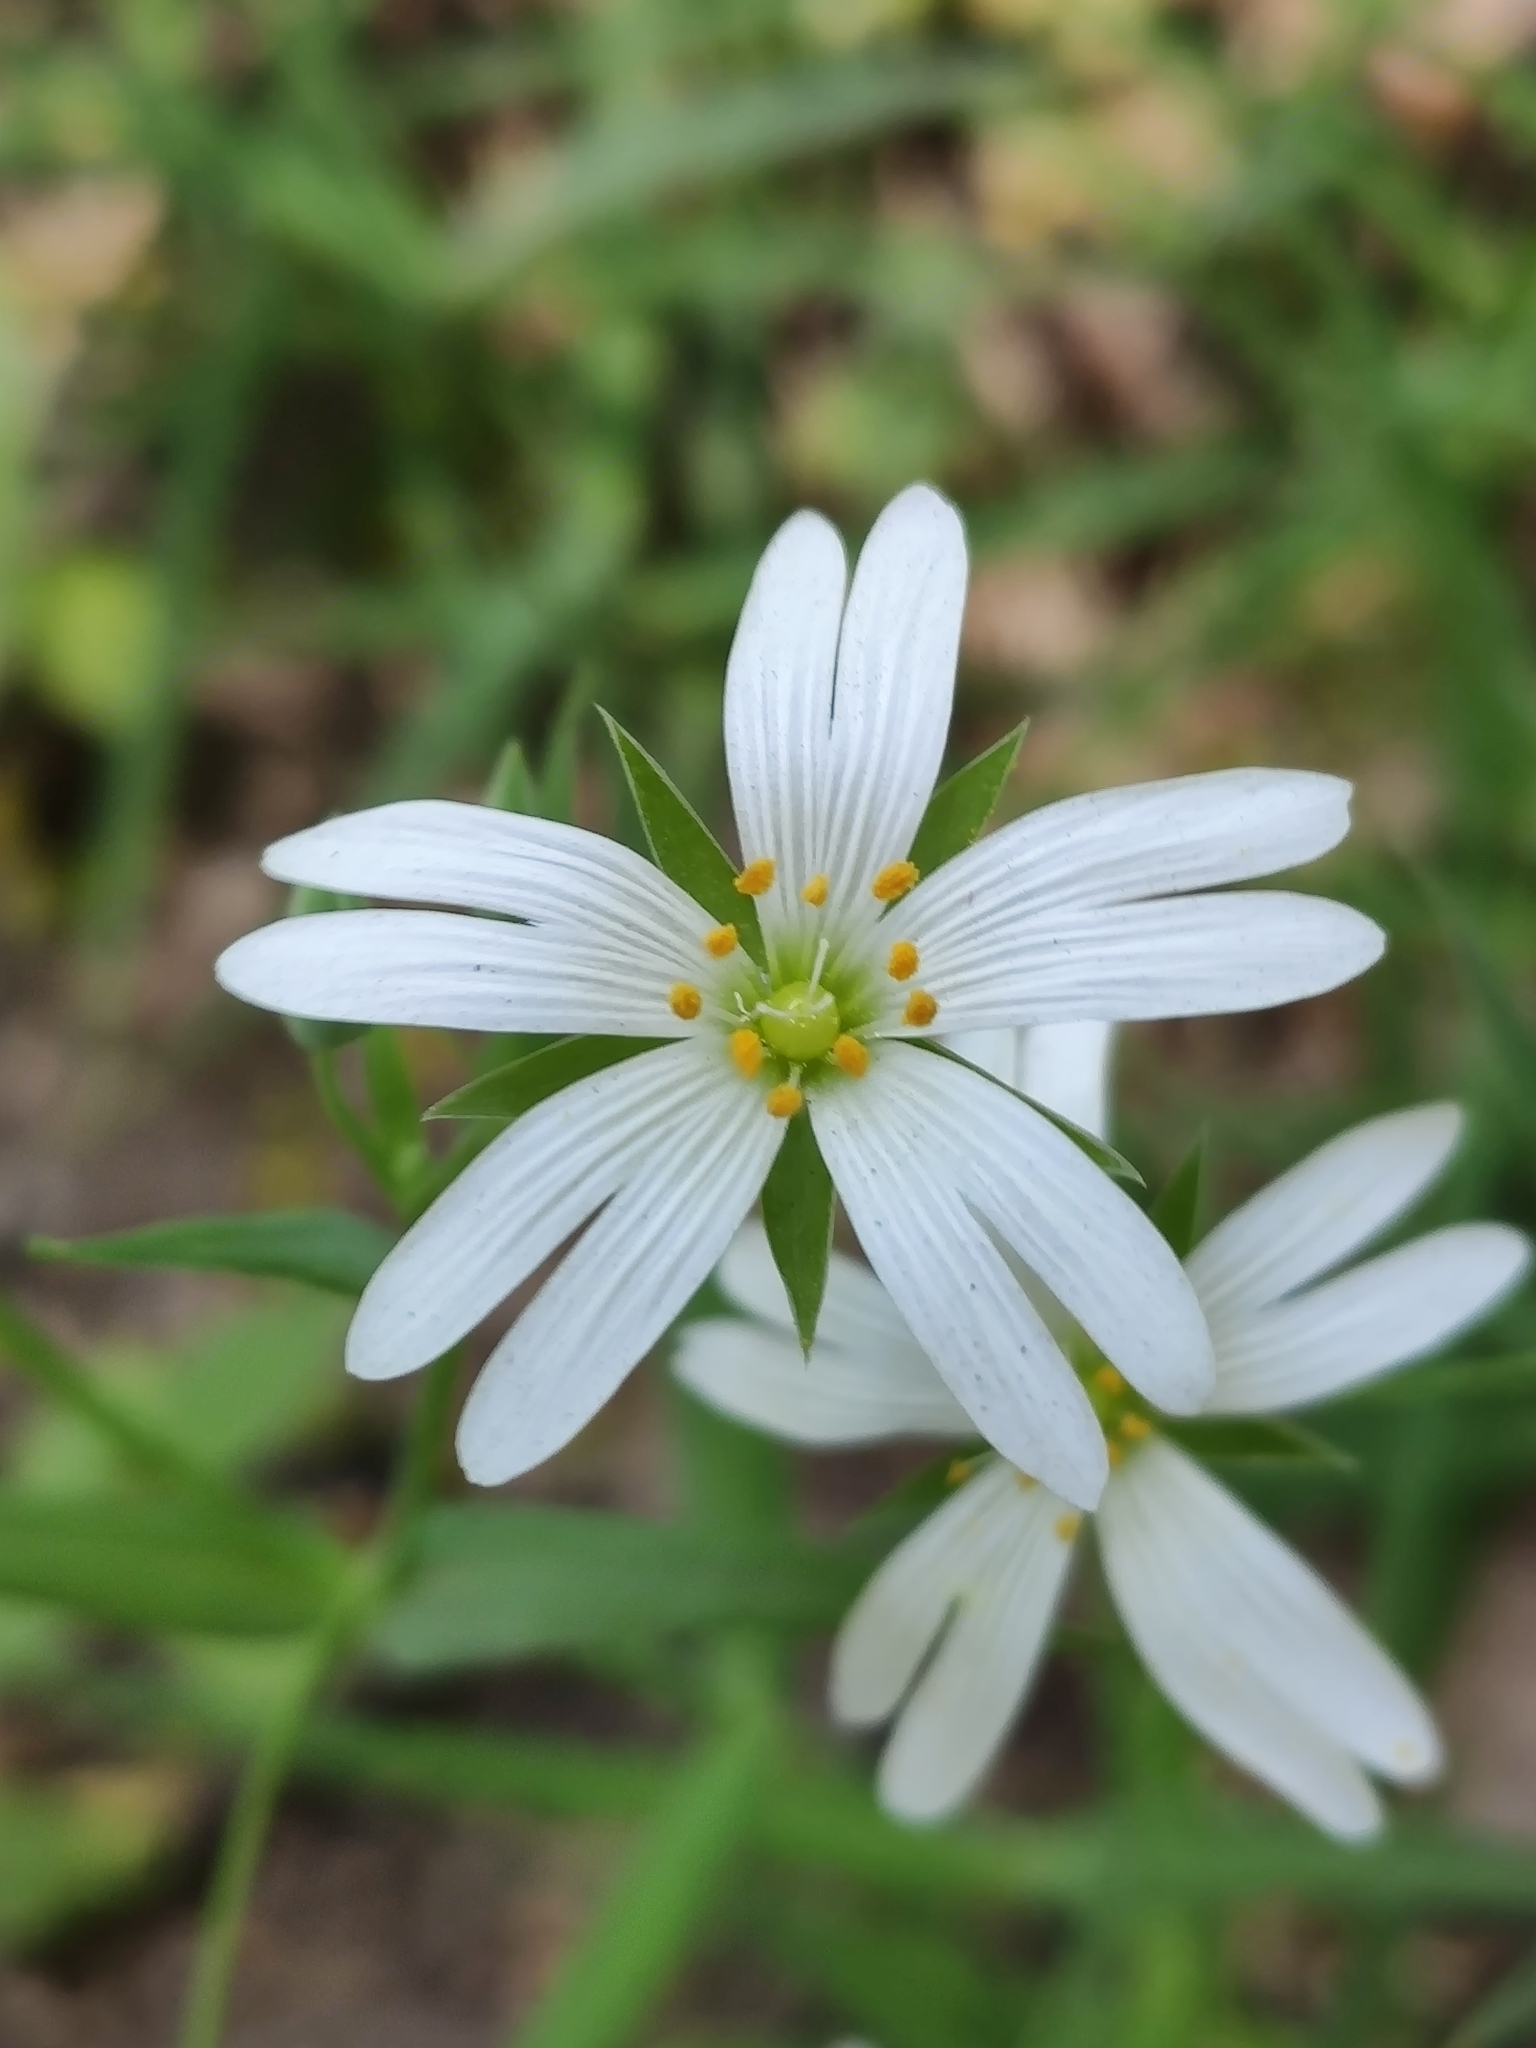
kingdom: Plantae
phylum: Tracheophyta
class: Magnoliopsida
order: Caryophyllales
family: Caryophyllaceae
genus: Rabelera
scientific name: Rabelera holostea
